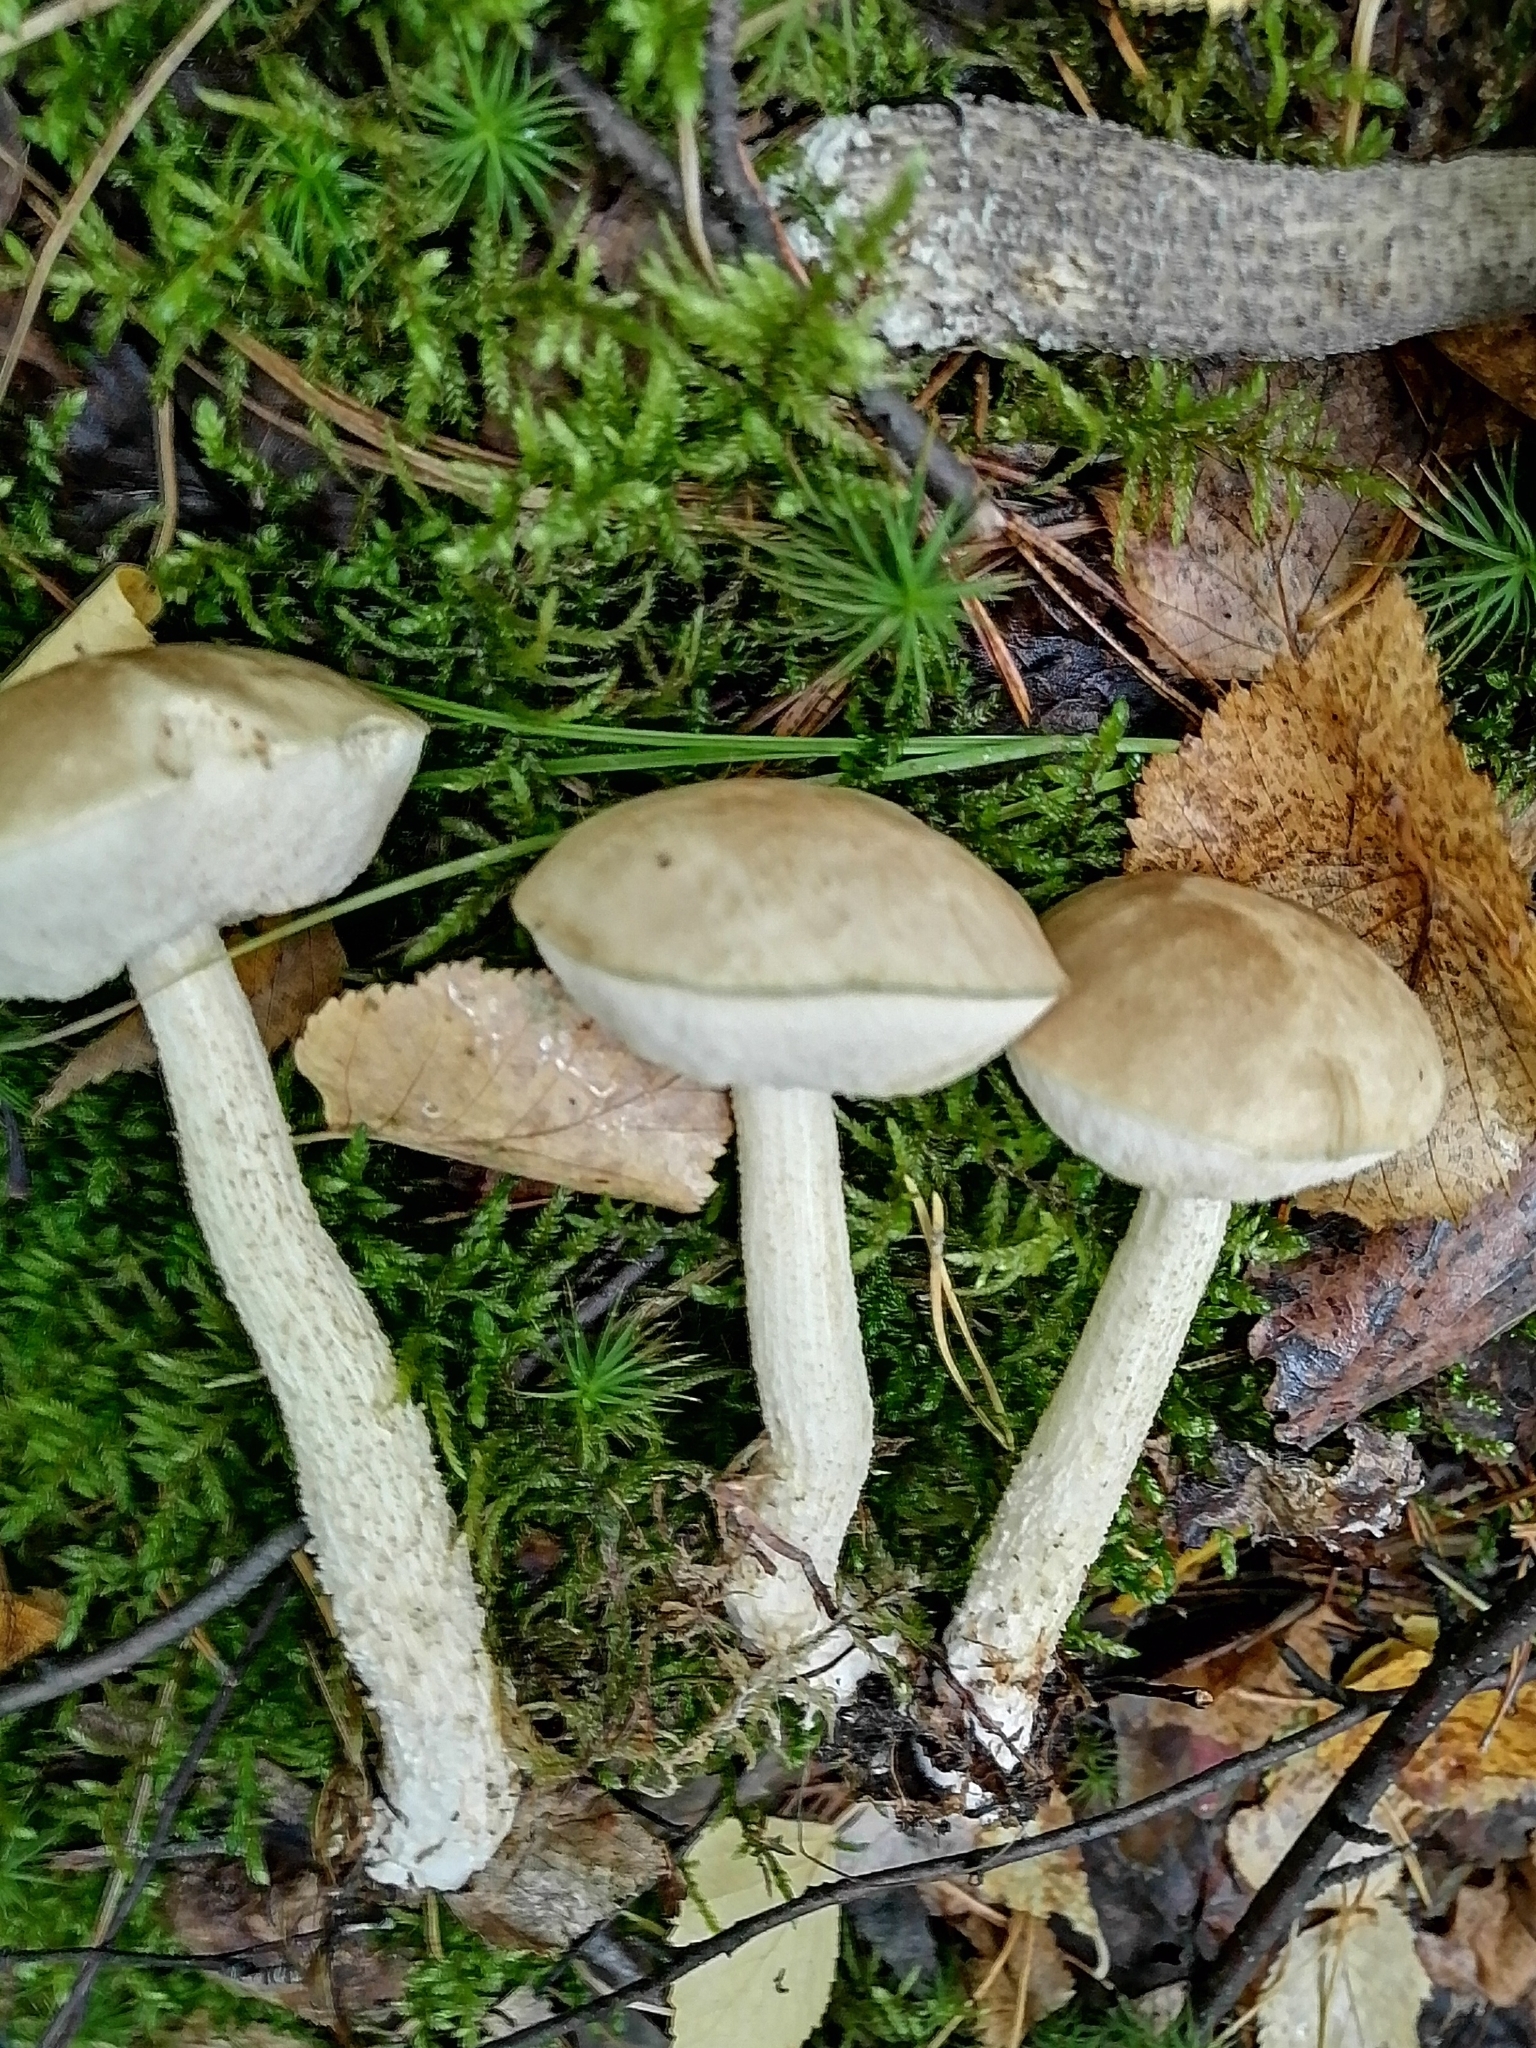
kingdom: Fungi
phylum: Basidiomycota
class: Agaricomycetes
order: Boletales
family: Boletaceae
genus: Leccinum
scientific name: Leccinum holopus
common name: Ghost bolete
